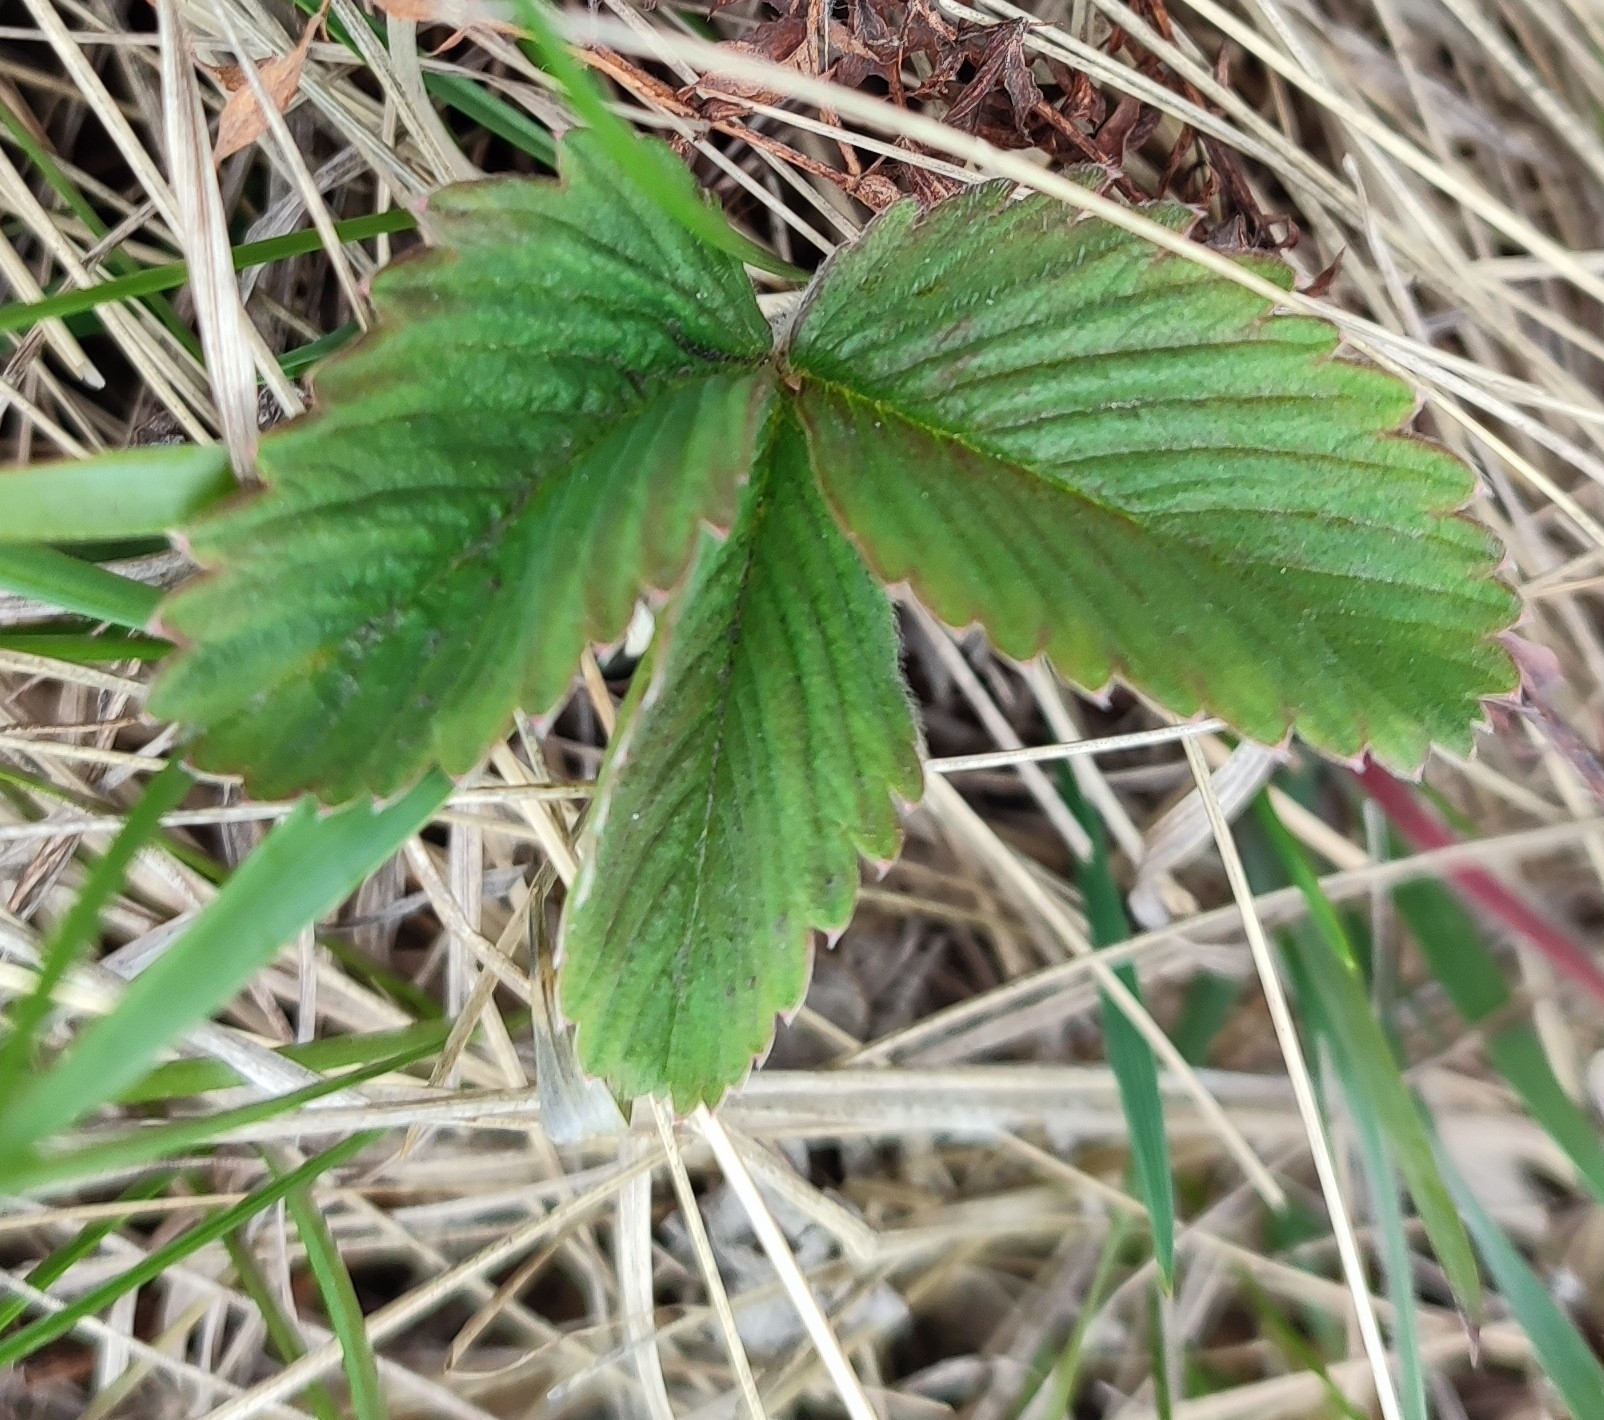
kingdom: Plantae
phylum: Tracheophyta
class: Magnoliopsida
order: Rosales
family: Rosaceae
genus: Fragaria
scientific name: Fragaria viridis
